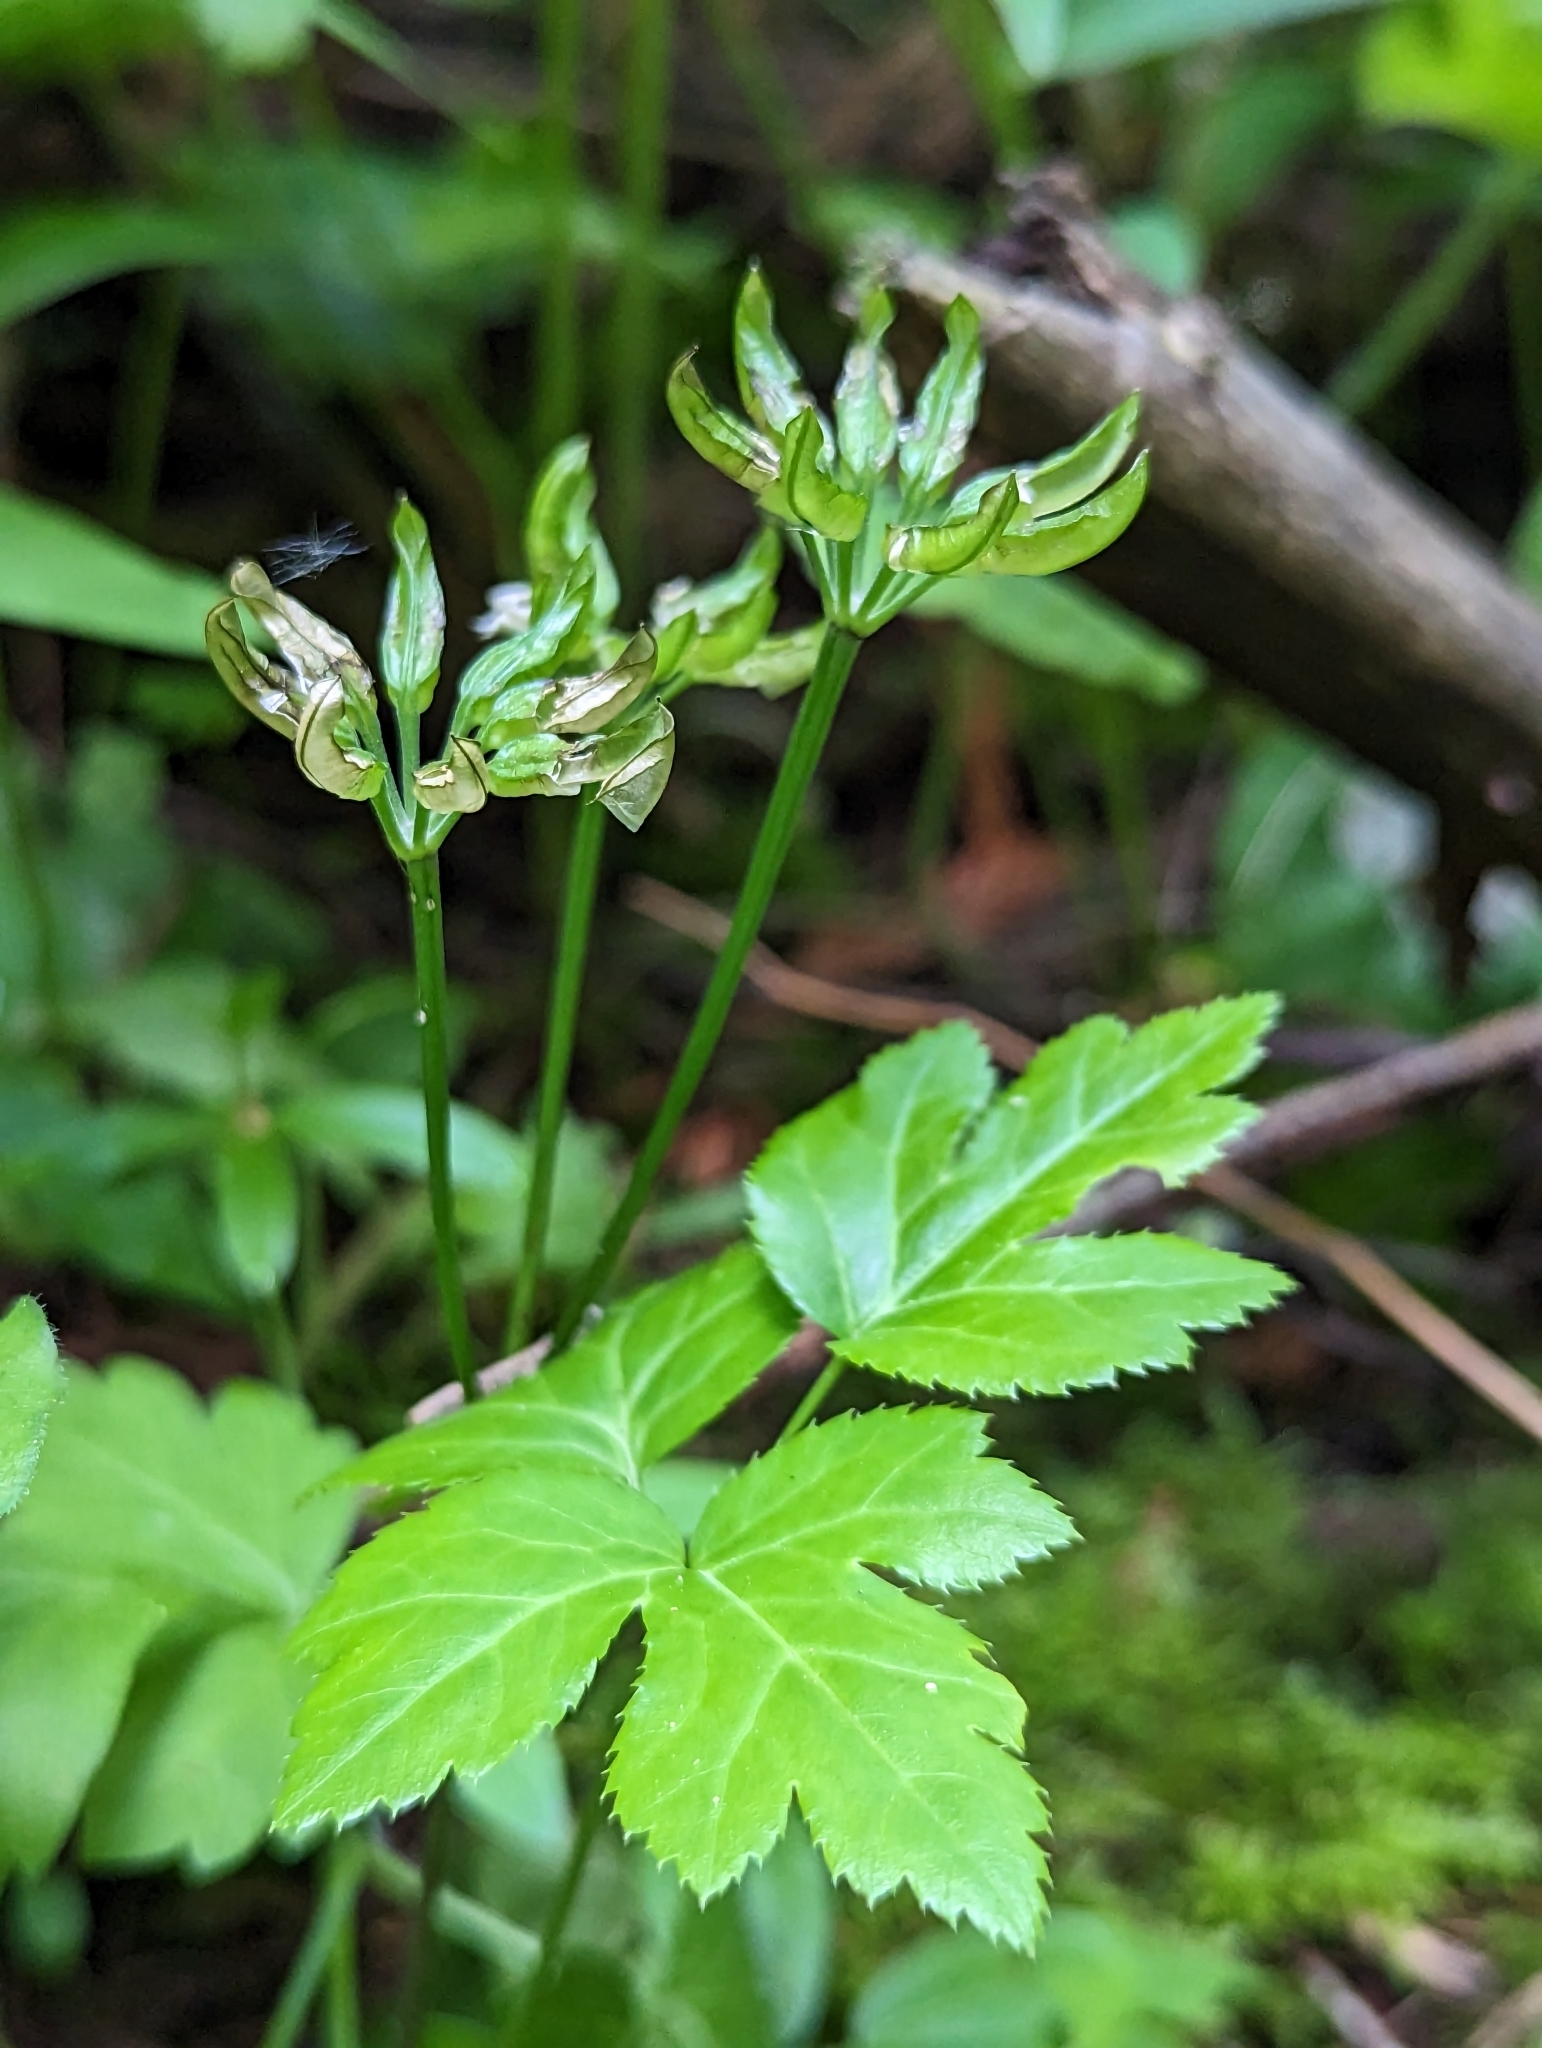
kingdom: Plantae
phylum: Tracheophyta
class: Magnoliopsida
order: Ranunculales
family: Ranunculaceae
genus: Coptis
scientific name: Coptis occidentalis
